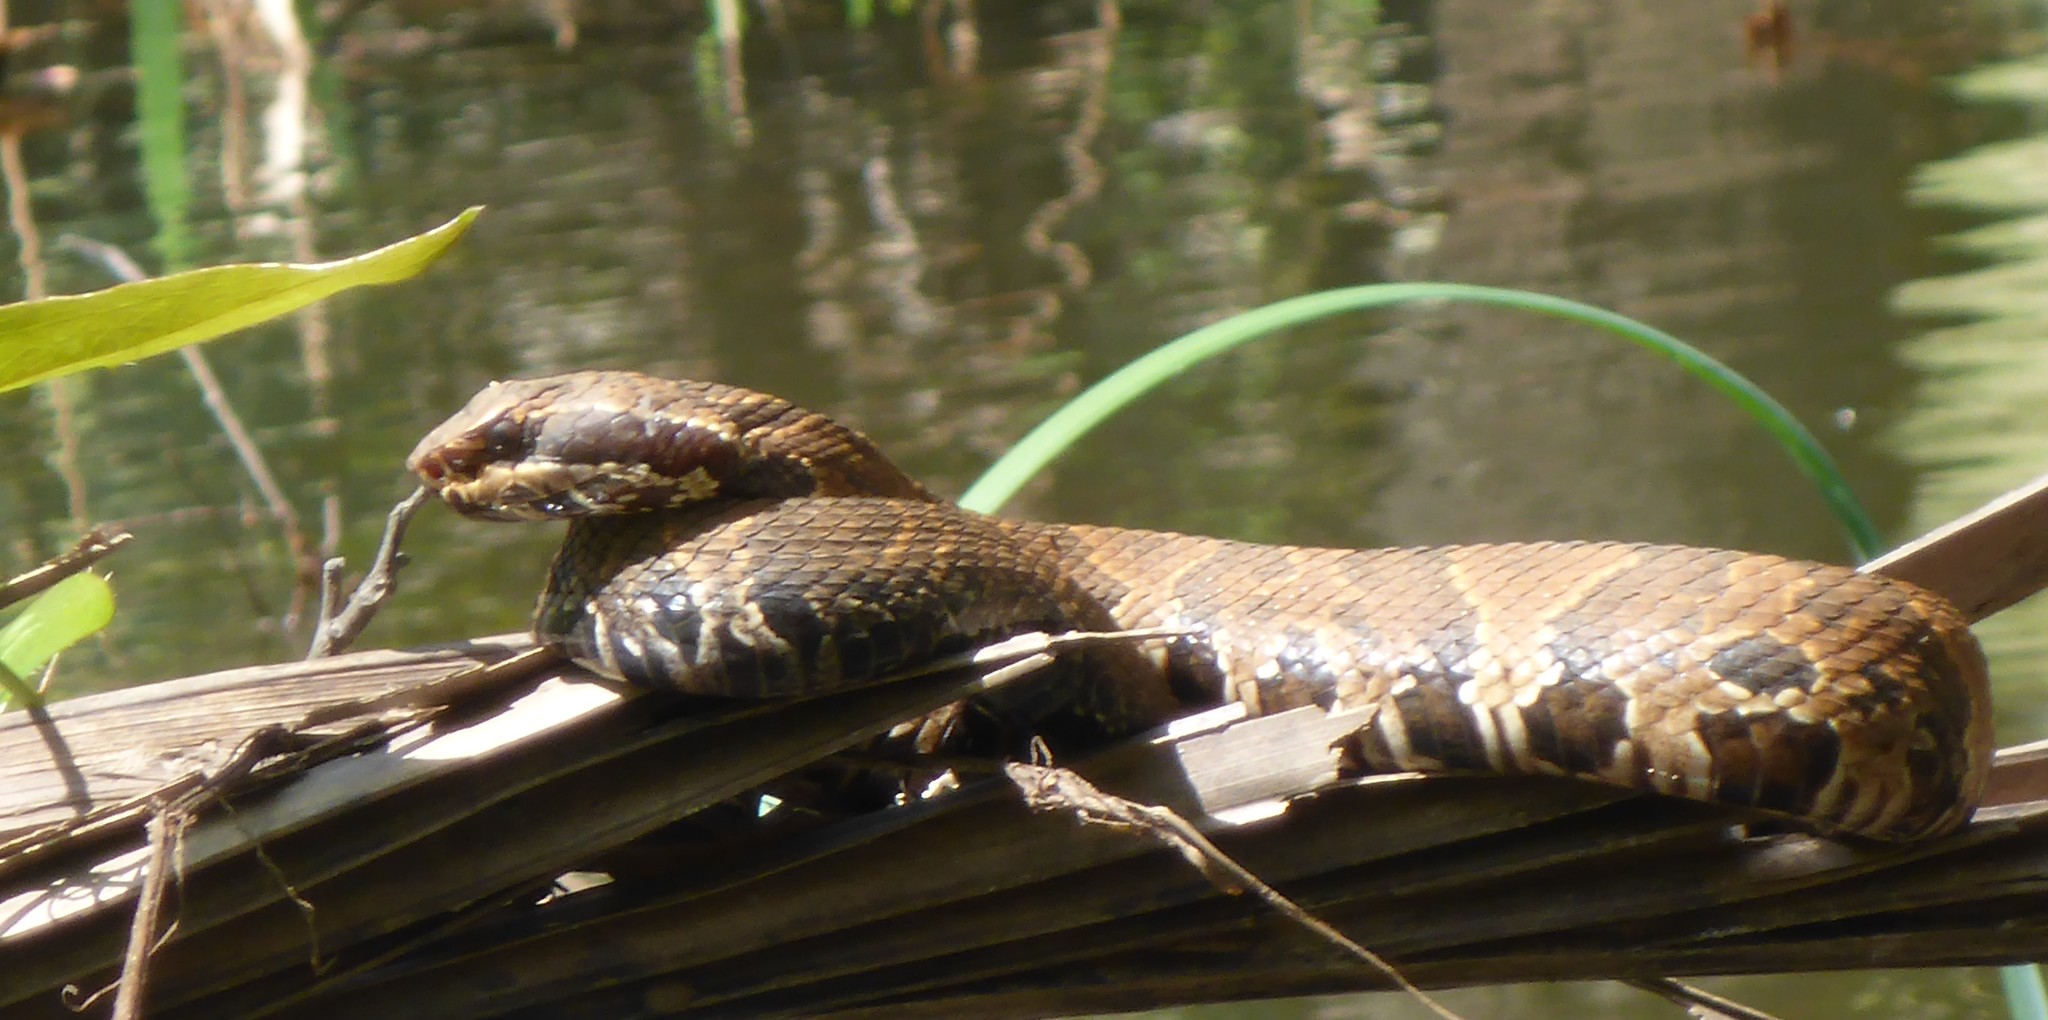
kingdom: Animalia
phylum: Chordata
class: Squamata
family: Viperidae
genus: Agkistrodon
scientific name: Agkistrodon conanti
